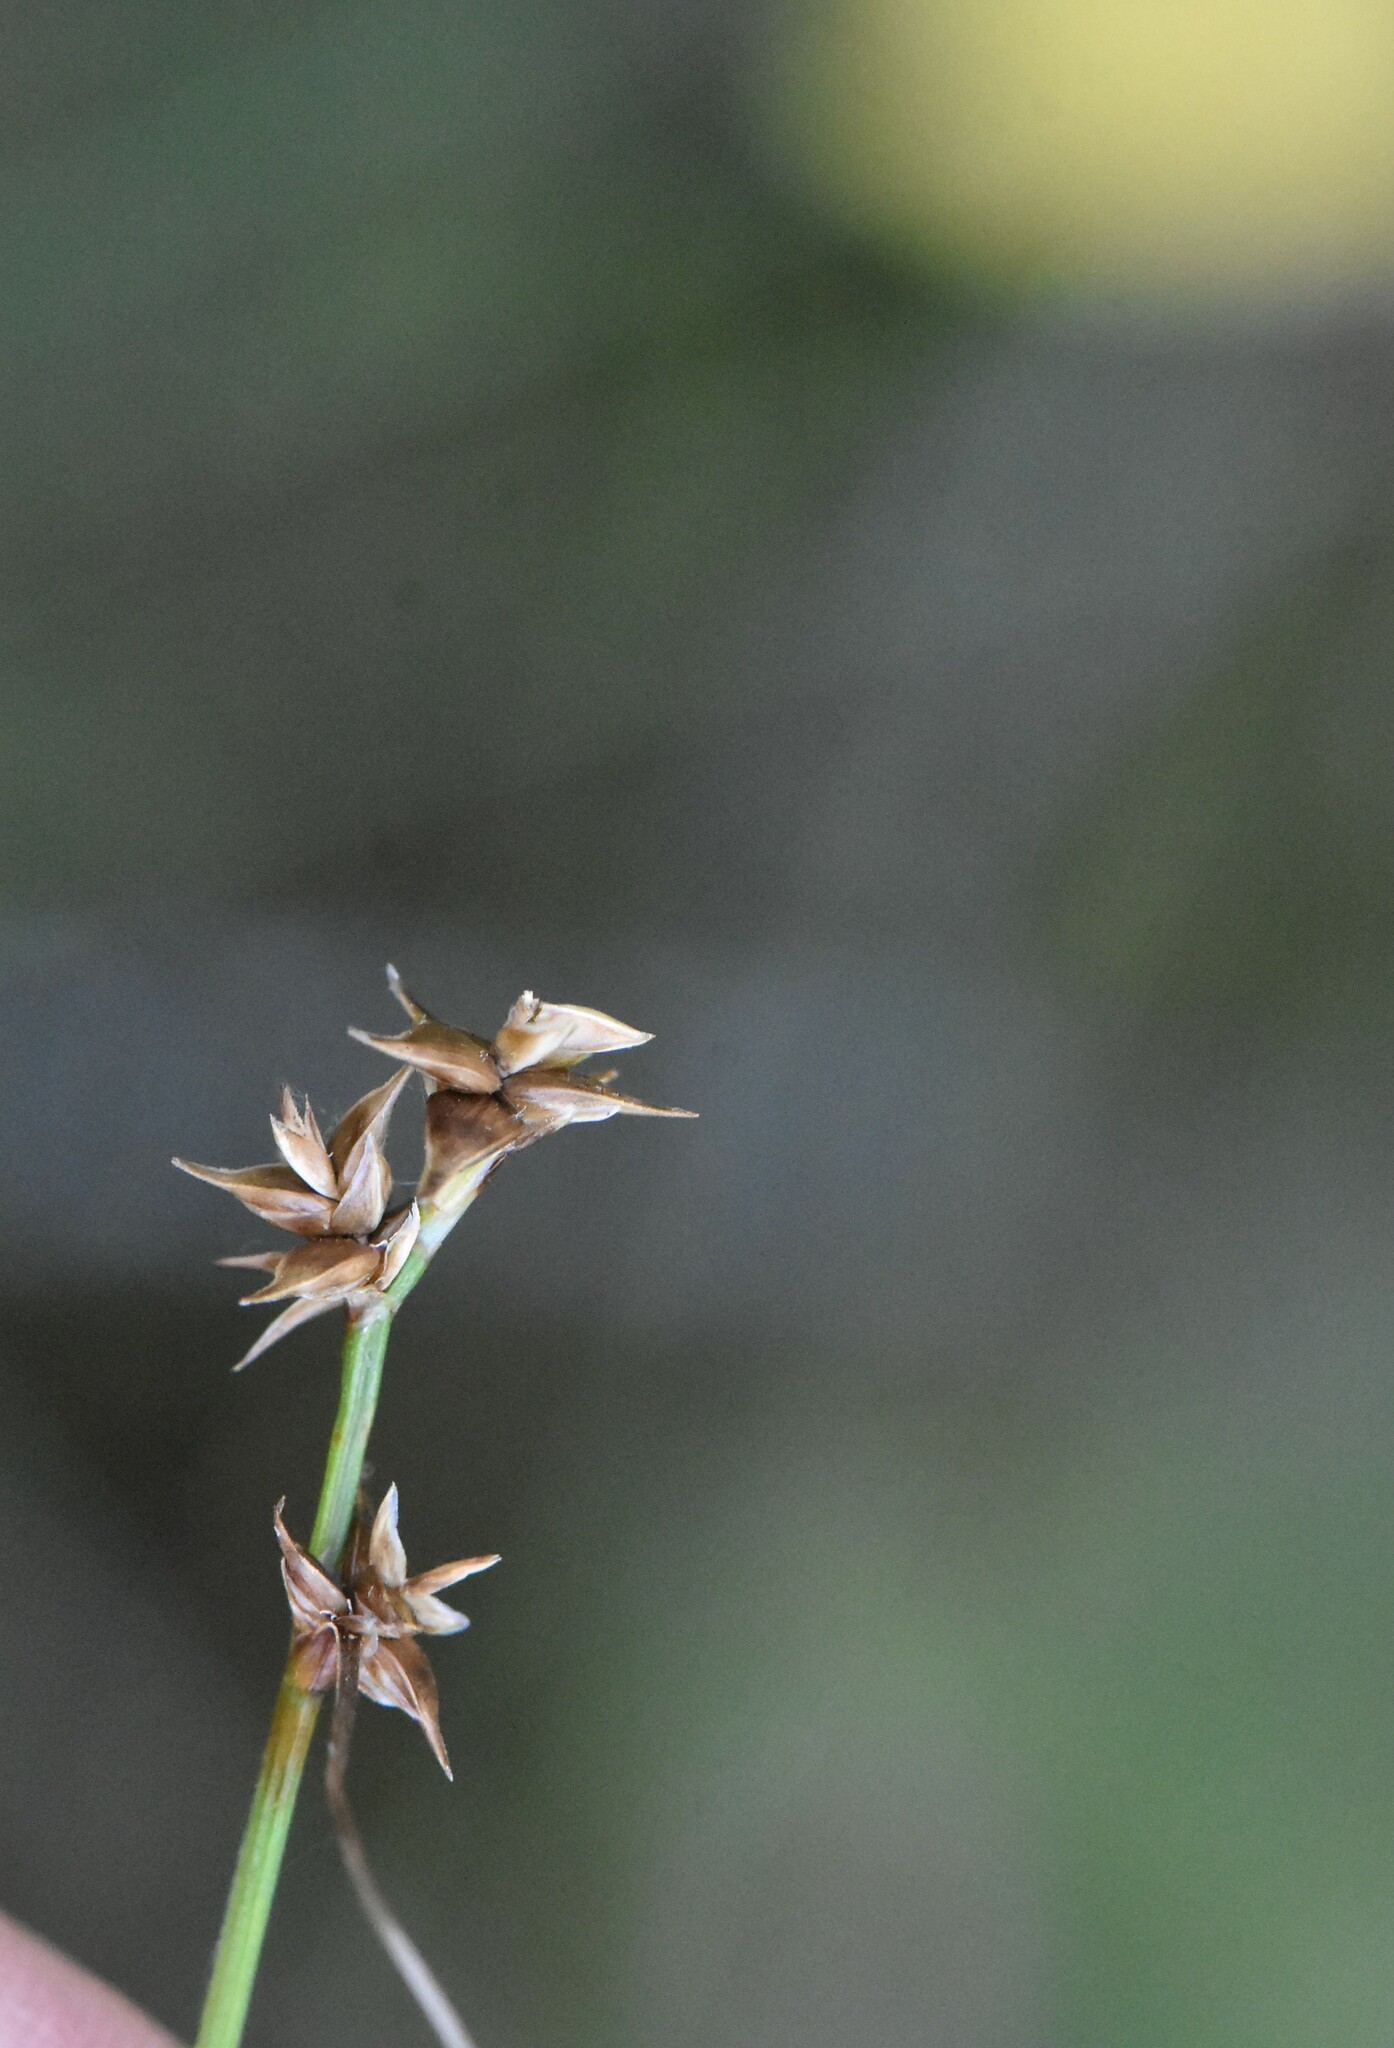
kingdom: Plantae
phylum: Tracheophyta
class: Liliopsida
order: Poales
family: Cyperaceae
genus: Carex
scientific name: Carex echinata
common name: Star sedge
